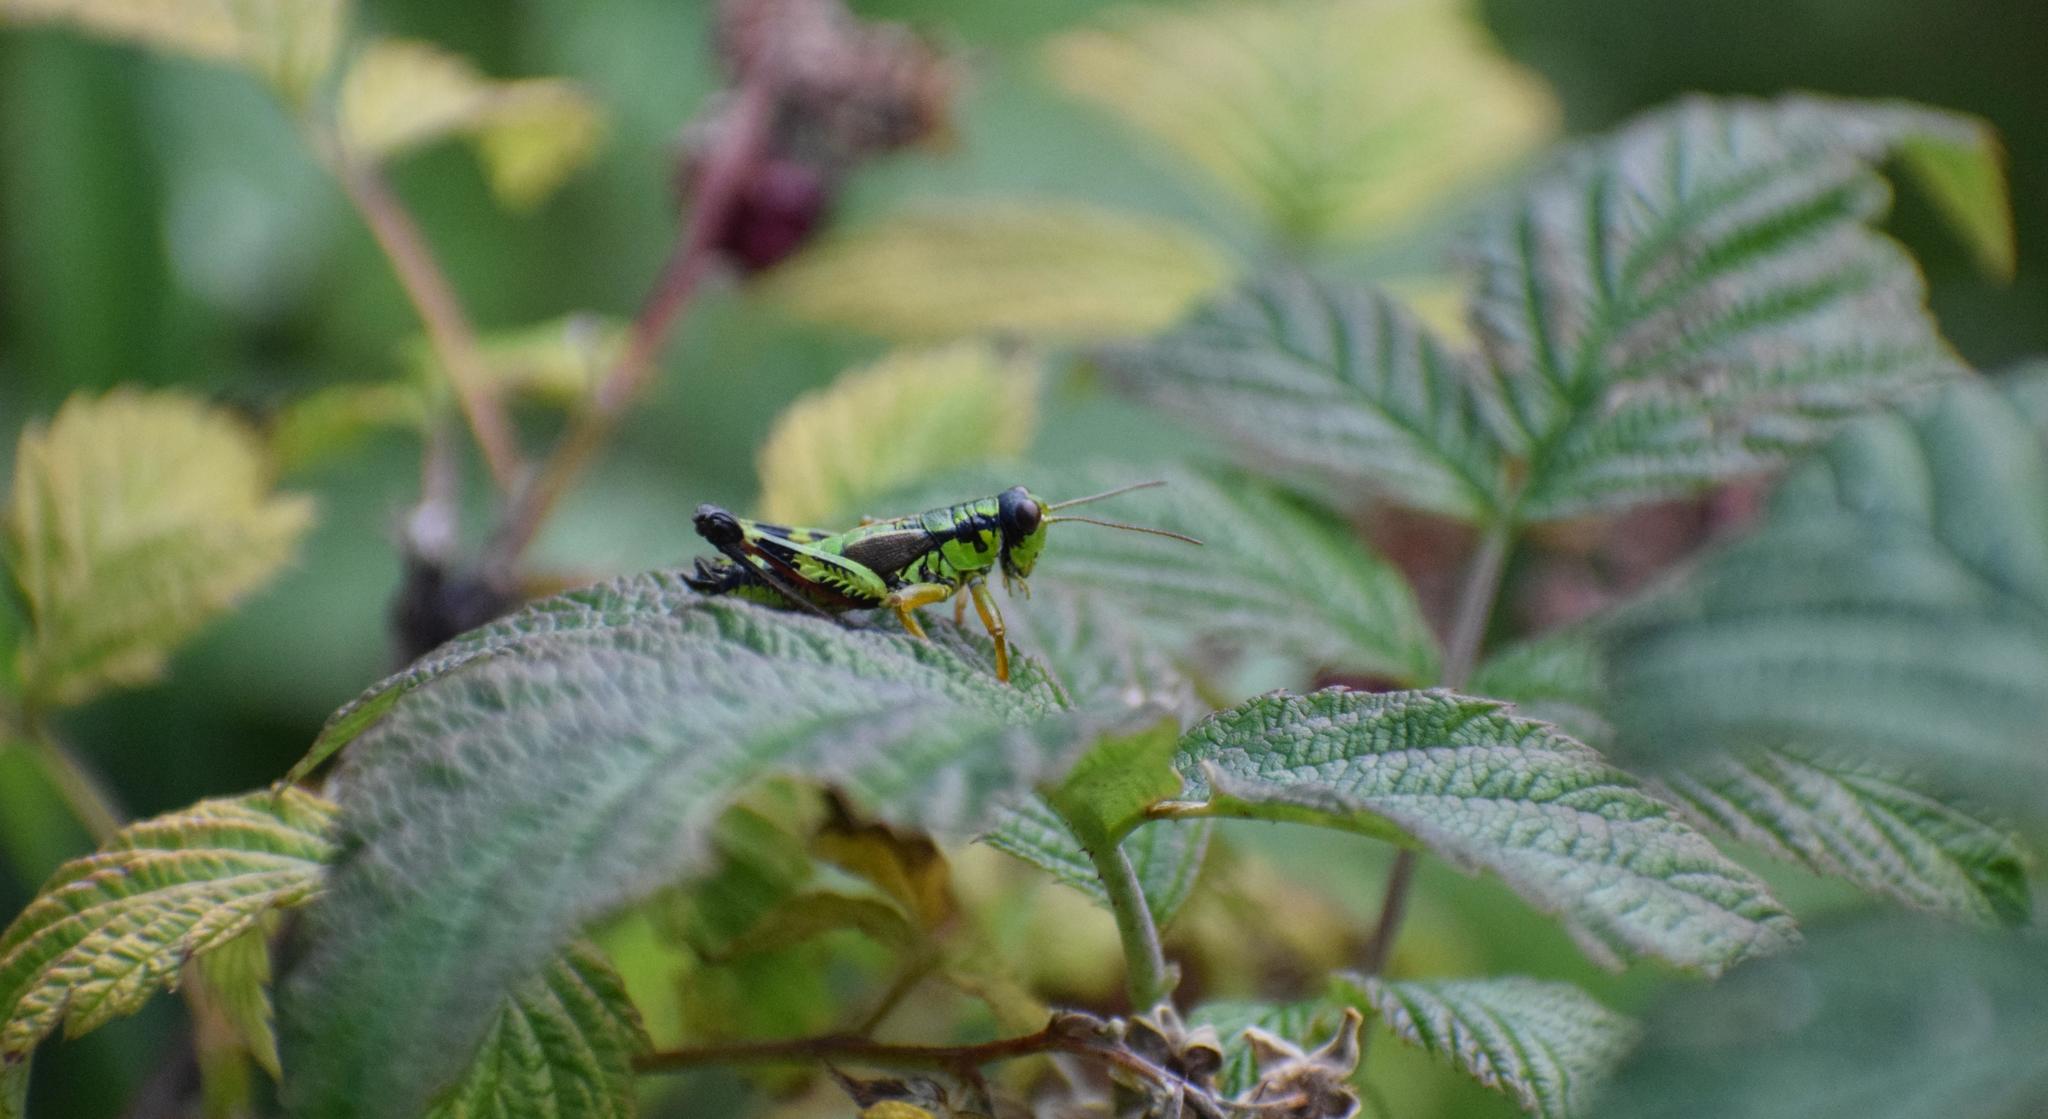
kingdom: Animalia
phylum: Arthropoda
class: Insecta
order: Orthoptera
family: Acrididae
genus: Miramella
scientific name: Miramella alpina
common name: Green mountain grasshopper
